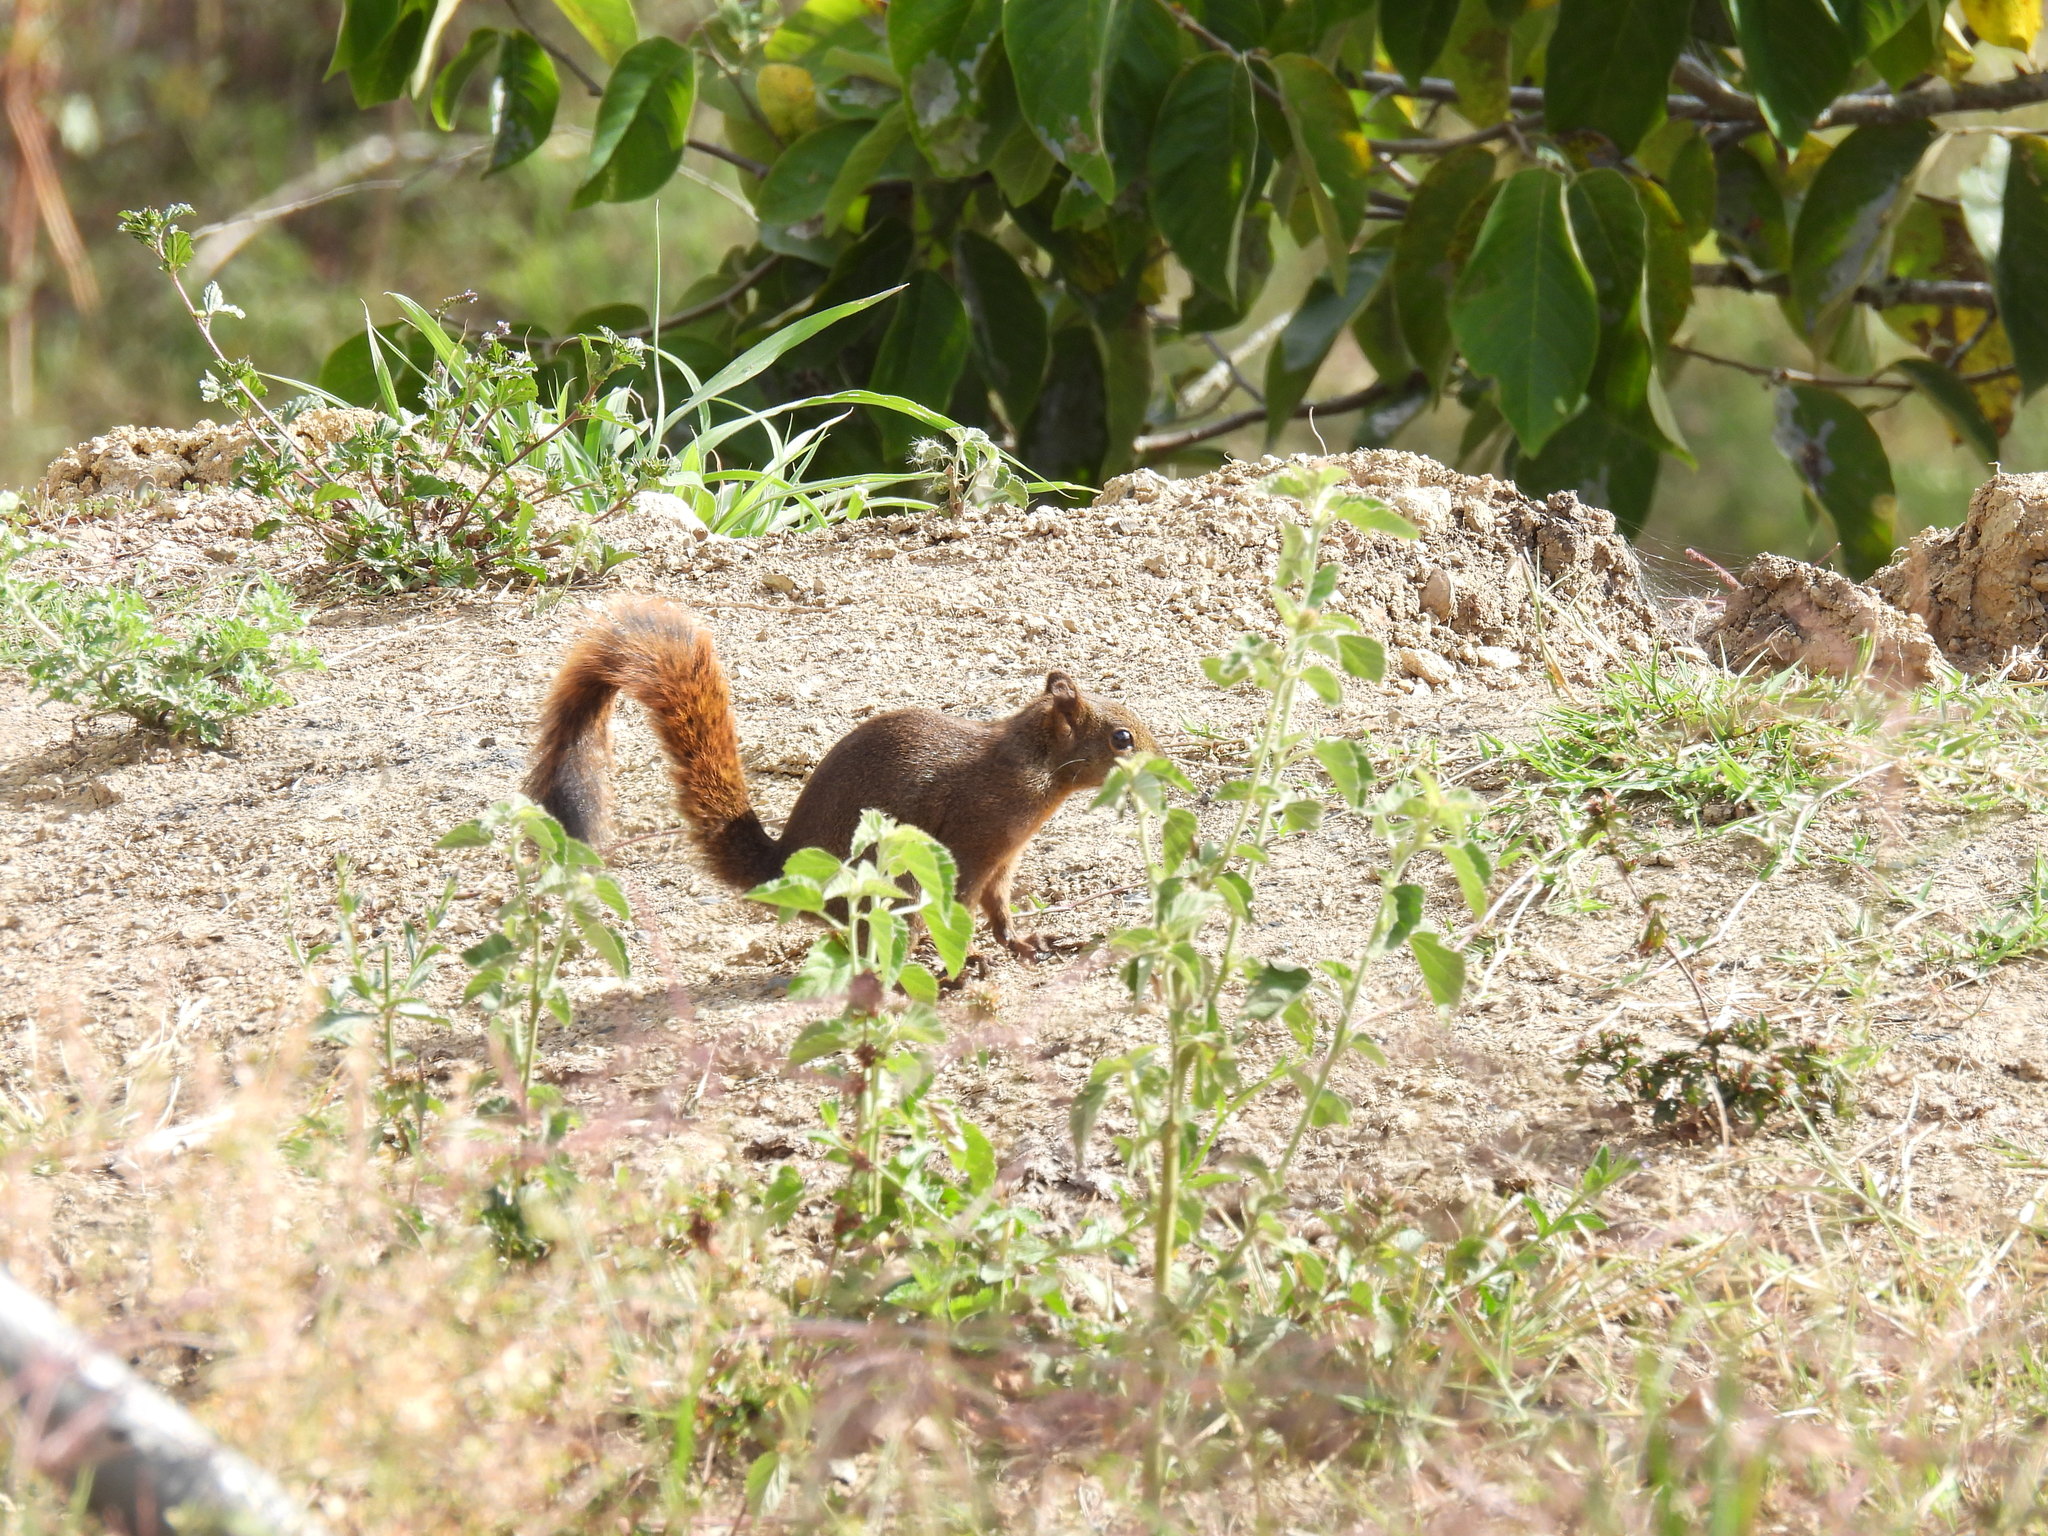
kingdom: Animalia
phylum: Chordata
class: Mammalia
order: Rodentia
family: Sciuridae
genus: Sciurus
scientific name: Sciurus granatensis
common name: Red-tailed squirrel
